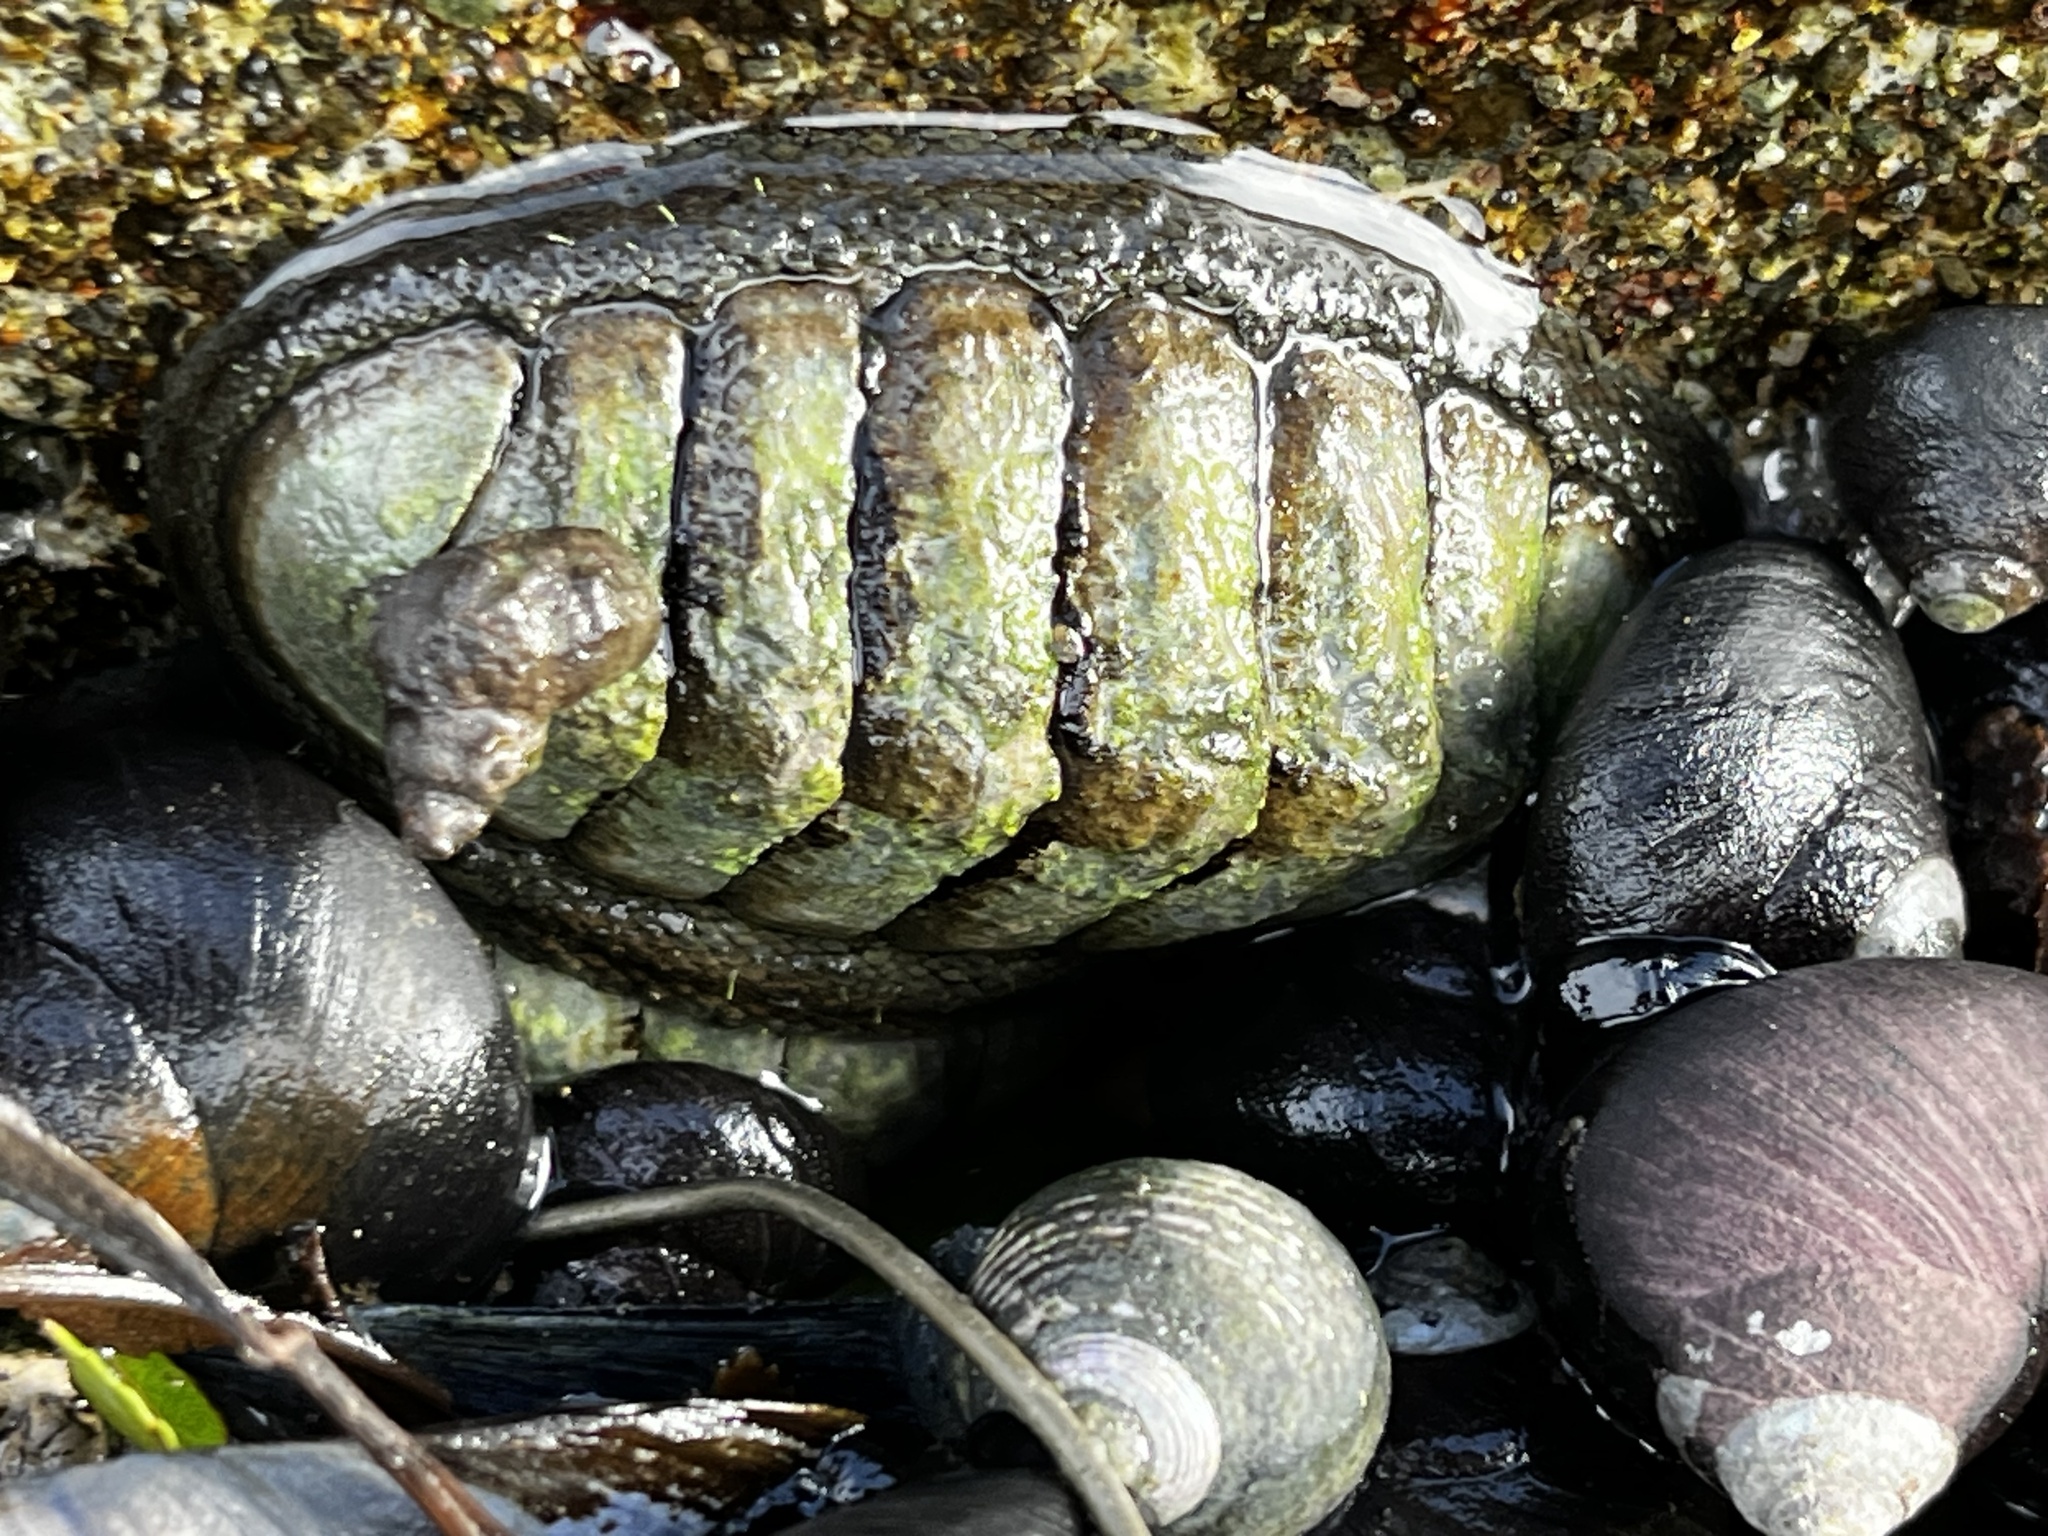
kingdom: Animalia
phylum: Mollusca
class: Polyplacophora
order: Chitonida
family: Chitonidae
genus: Chiton
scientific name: Chiton granosus
